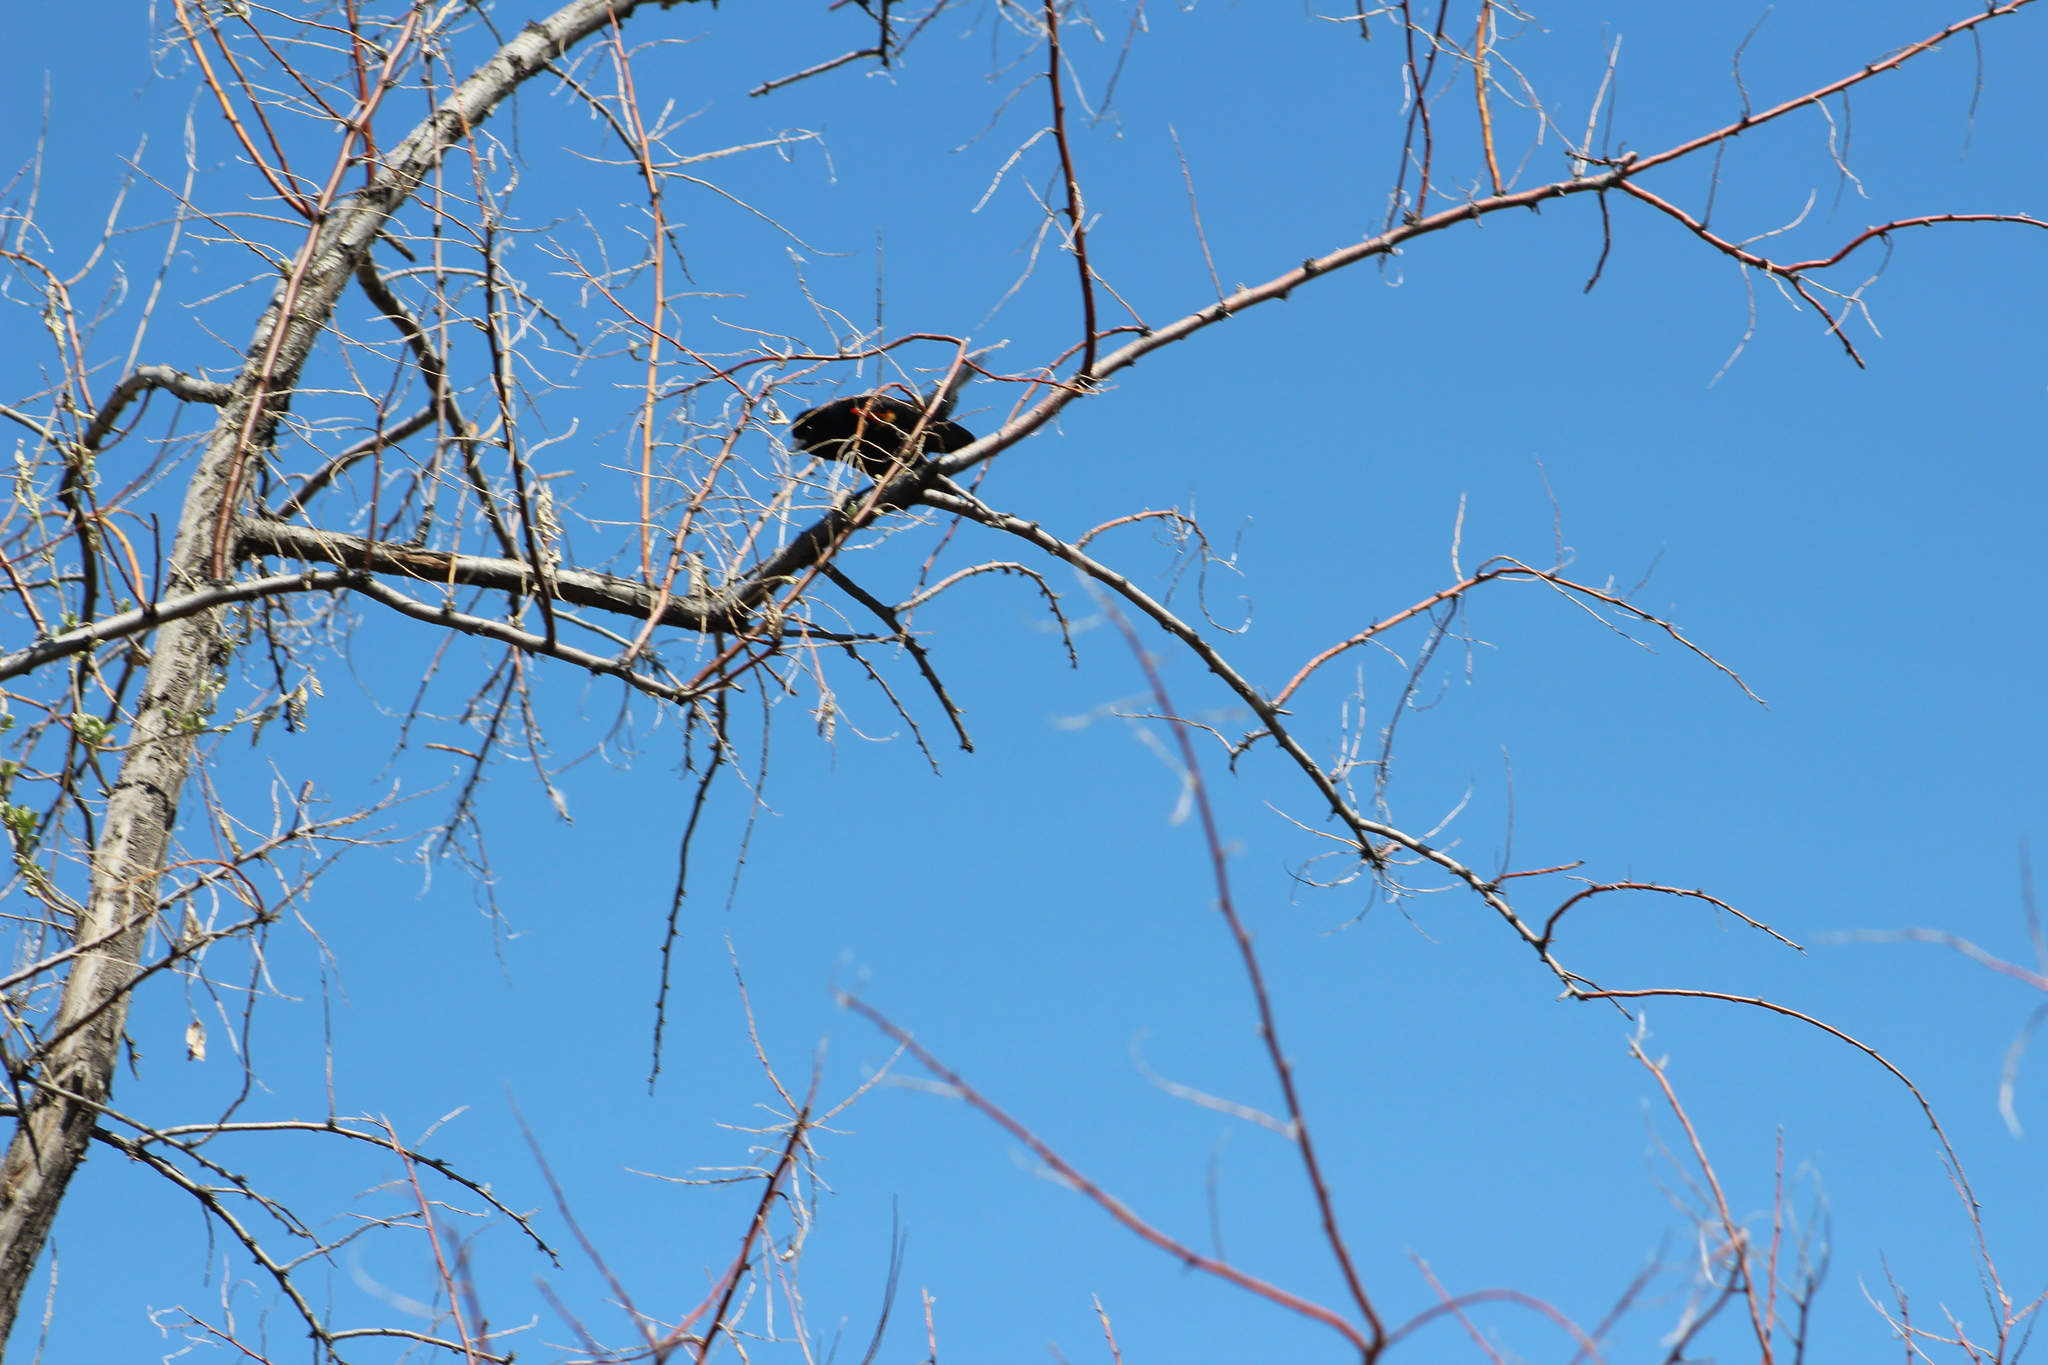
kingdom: Animalia
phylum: Chordata
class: Aves
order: Passeriformes
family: Icteridae
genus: Agelaius
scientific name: Agelaius phoeniceus
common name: Red-winged blackbird
